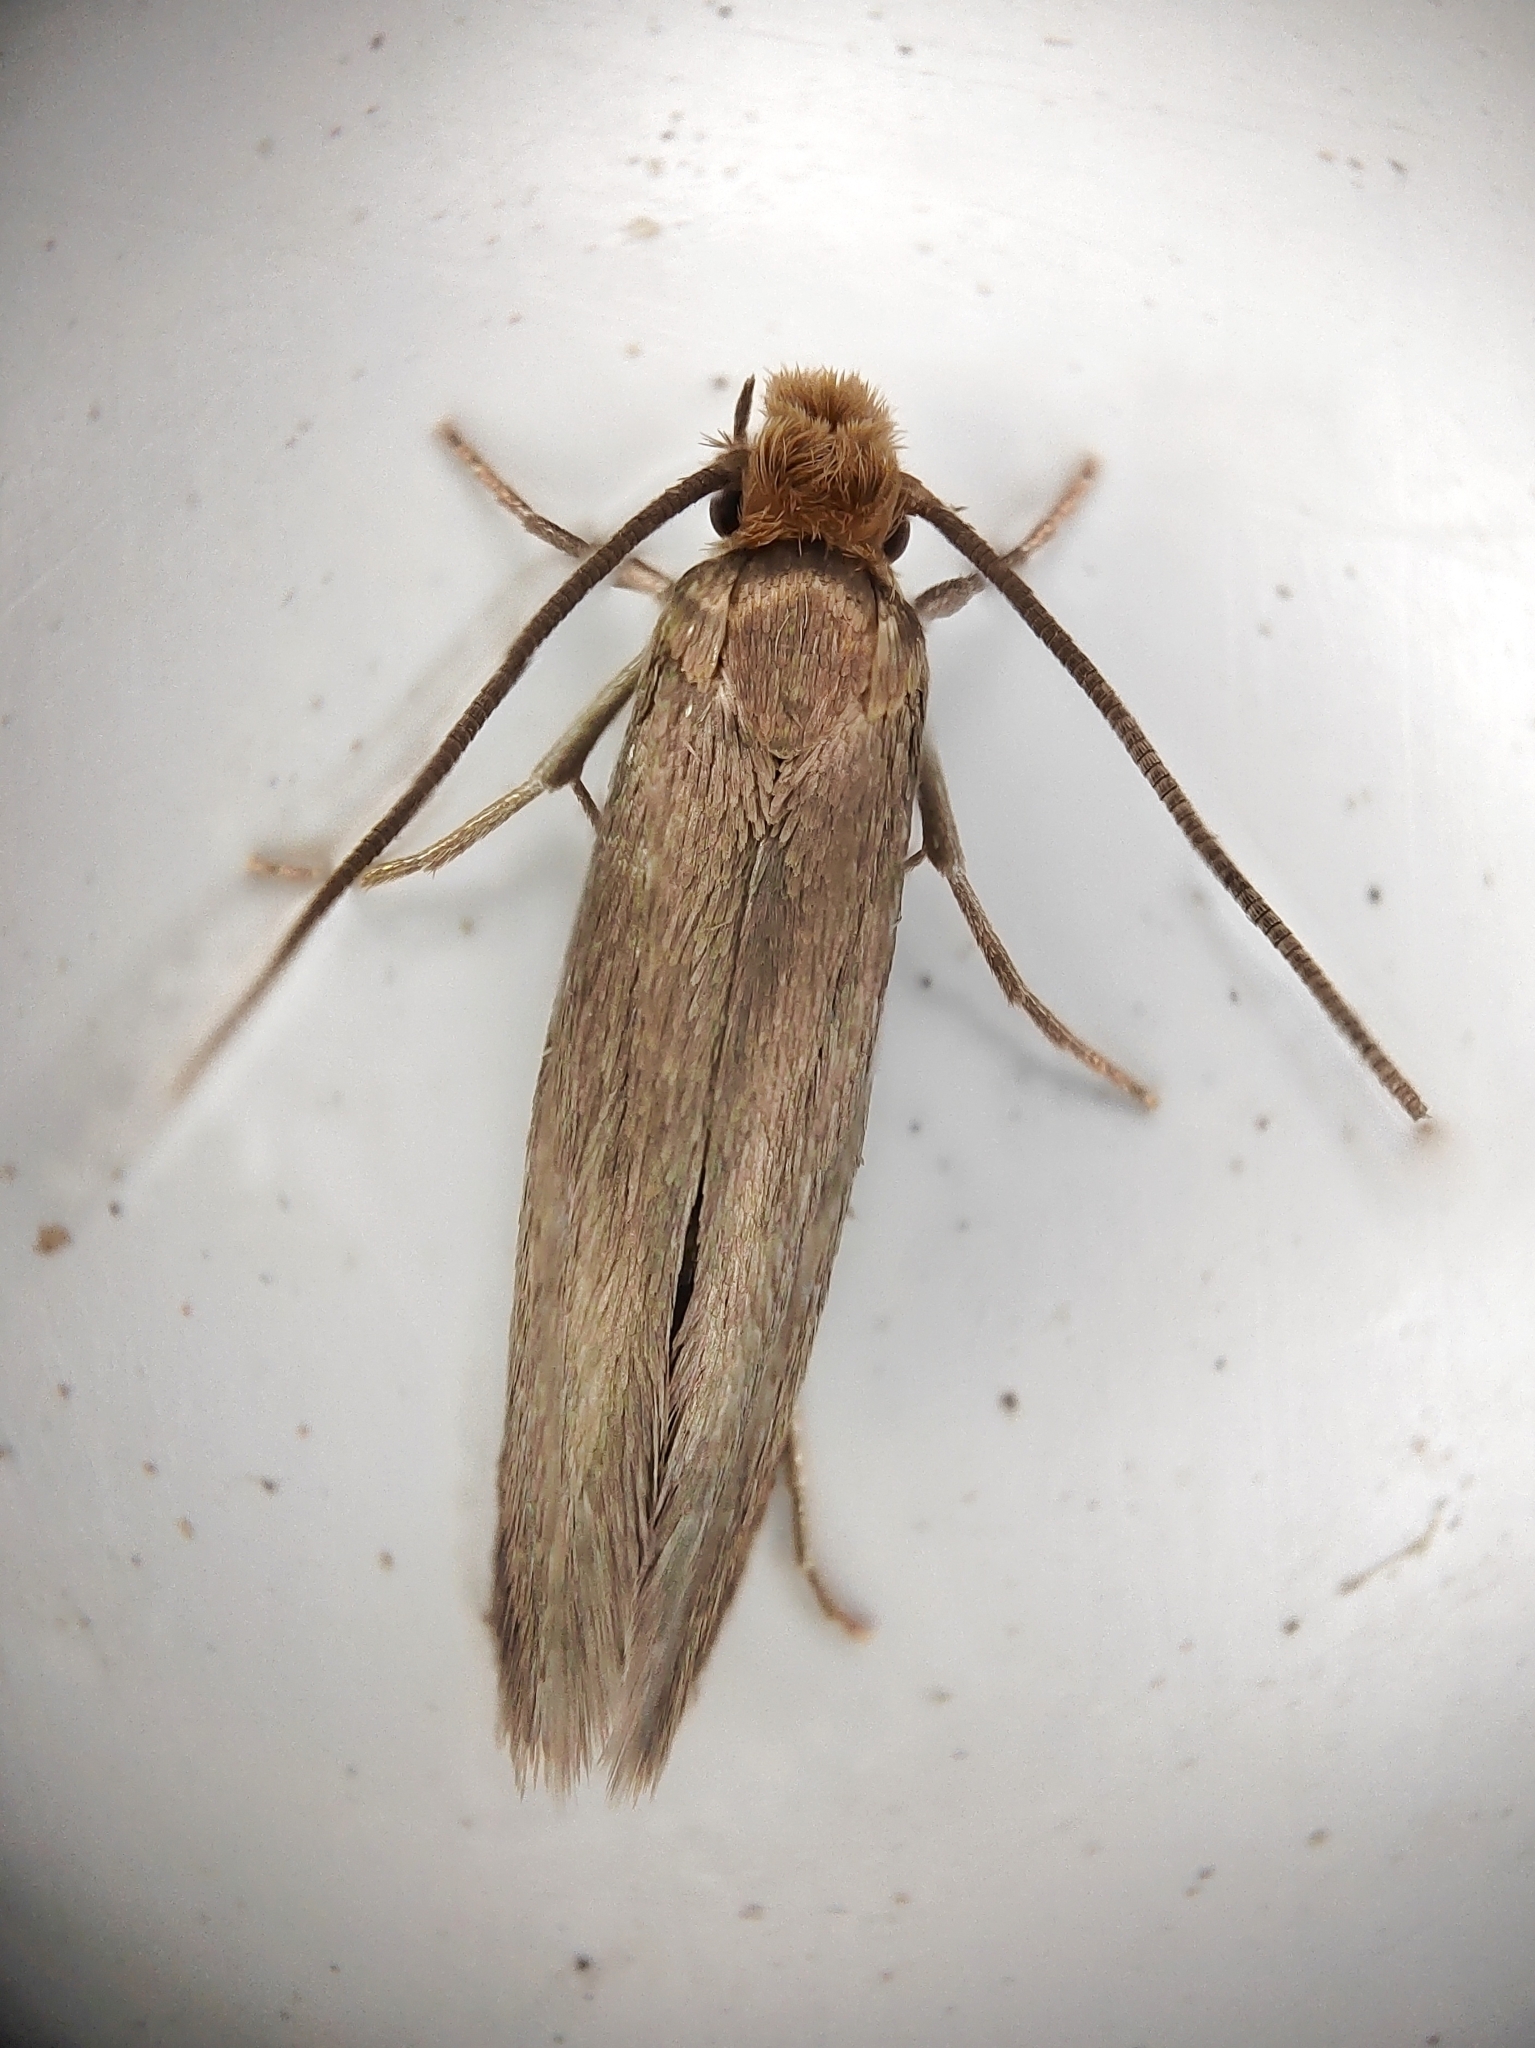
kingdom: Animalia
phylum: Arthropoda
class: Insecta
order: Lepidoptera
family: Tineidae
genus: Tineola
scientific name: Tineola bisselliella
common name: Webbing clothes moth
